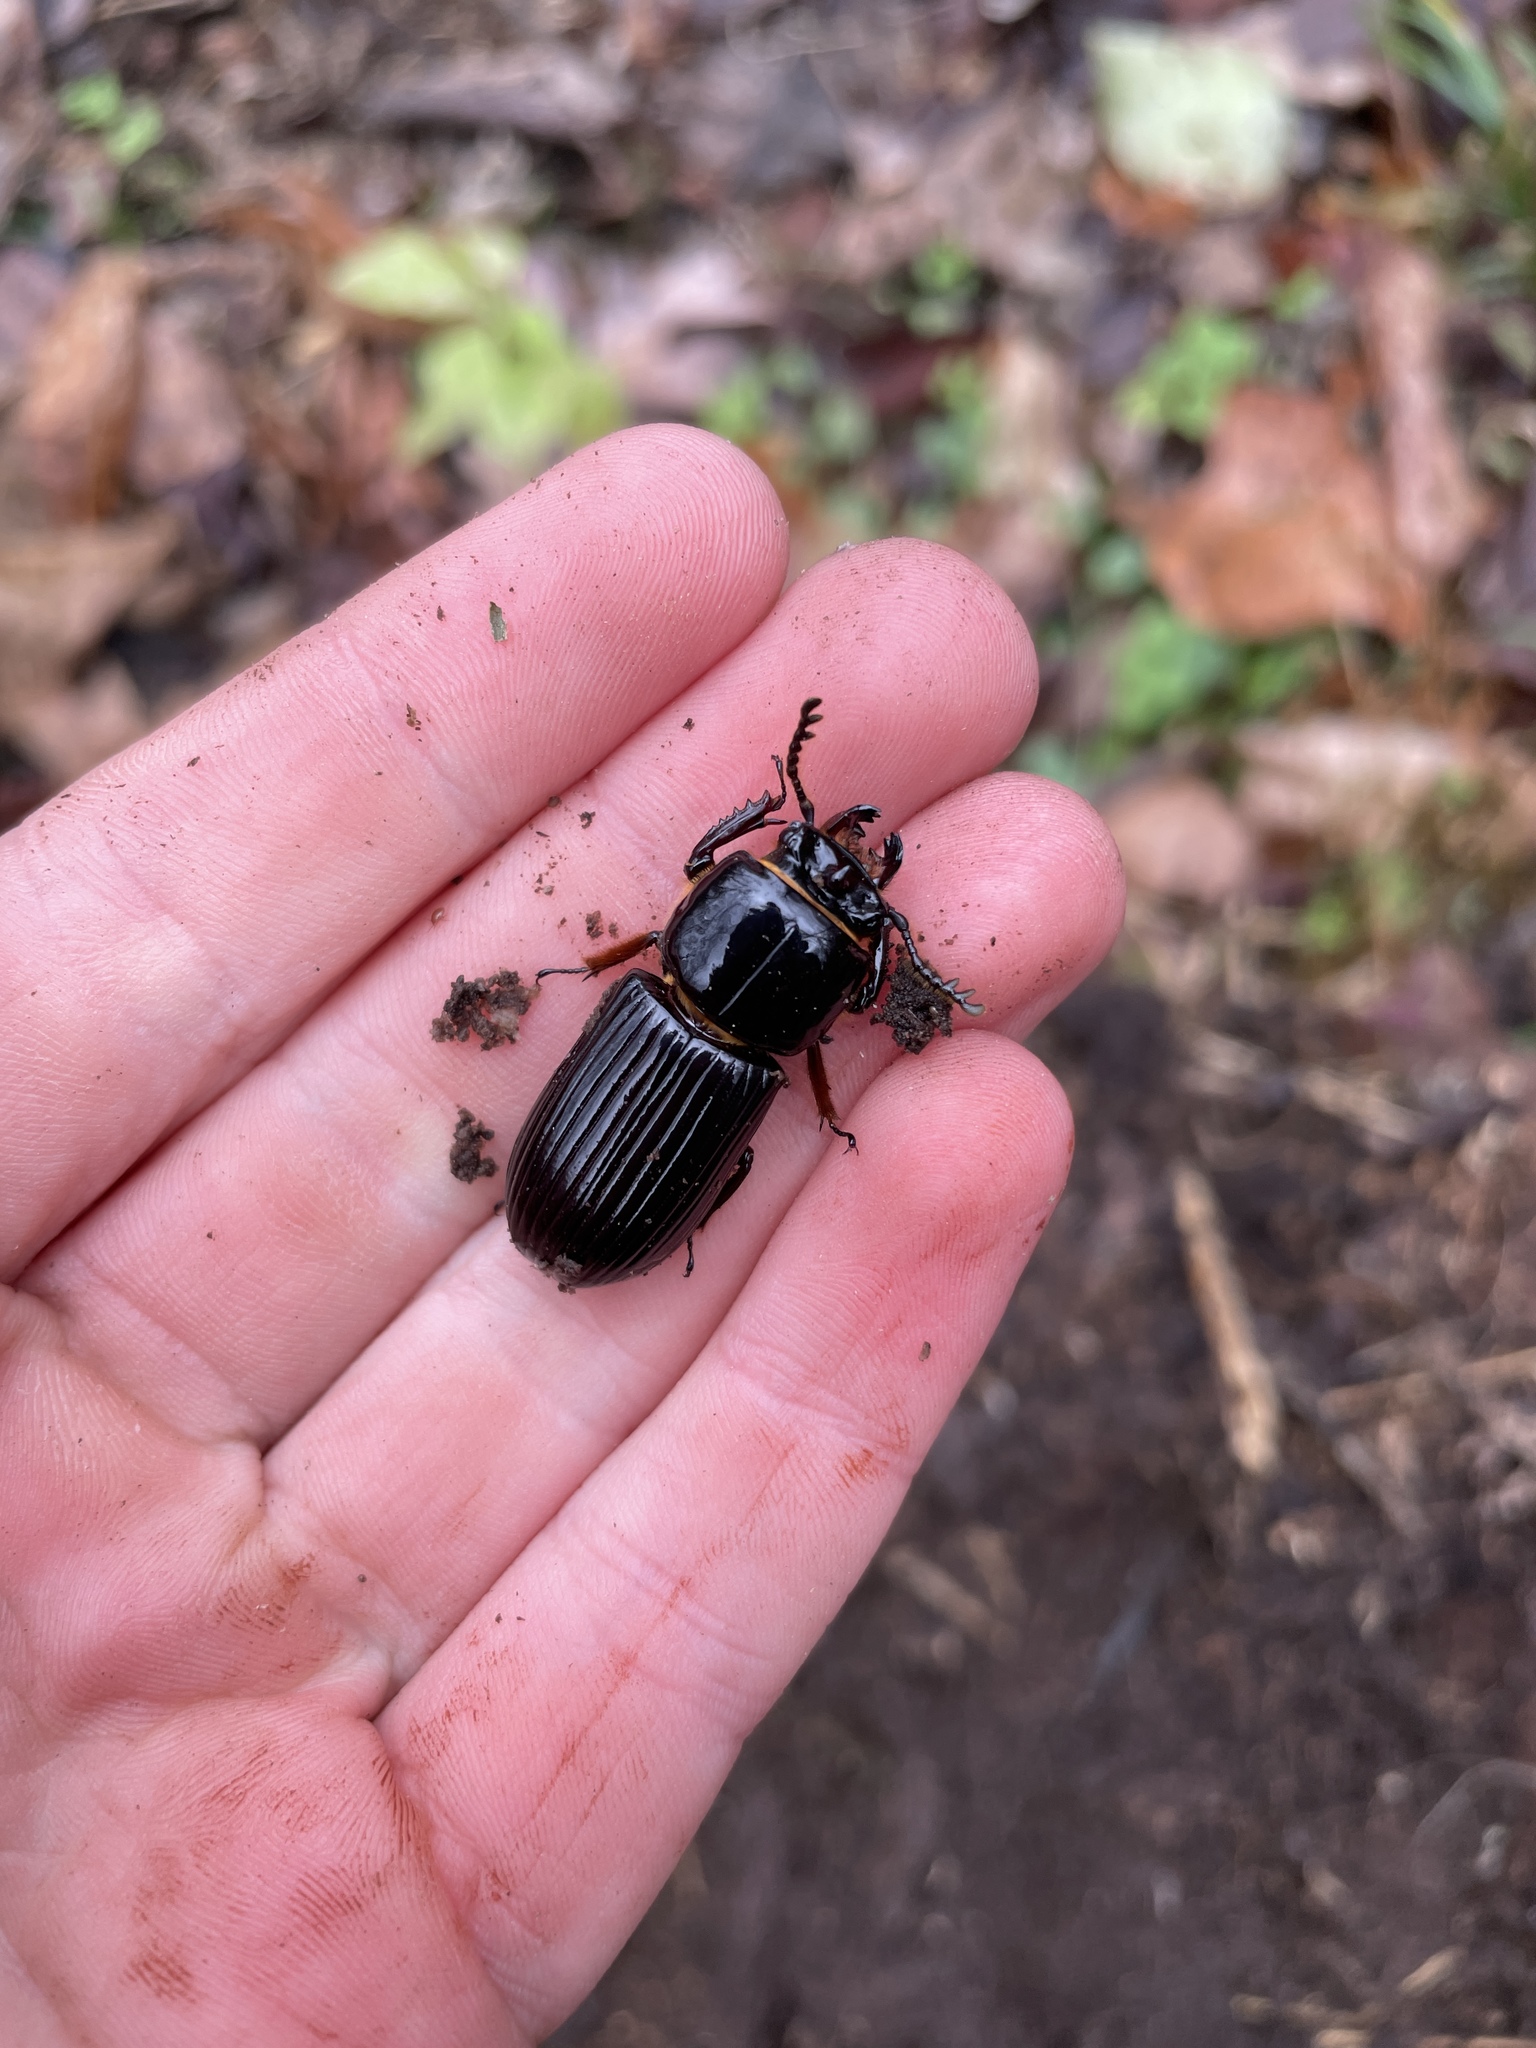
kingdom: Animalia
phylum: Arthropoda
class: Insecta
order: Coleoptera
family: Passalidae
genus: Odontotaenius
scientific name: Odontotaenius disjunctus
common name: Patent leather beetle
